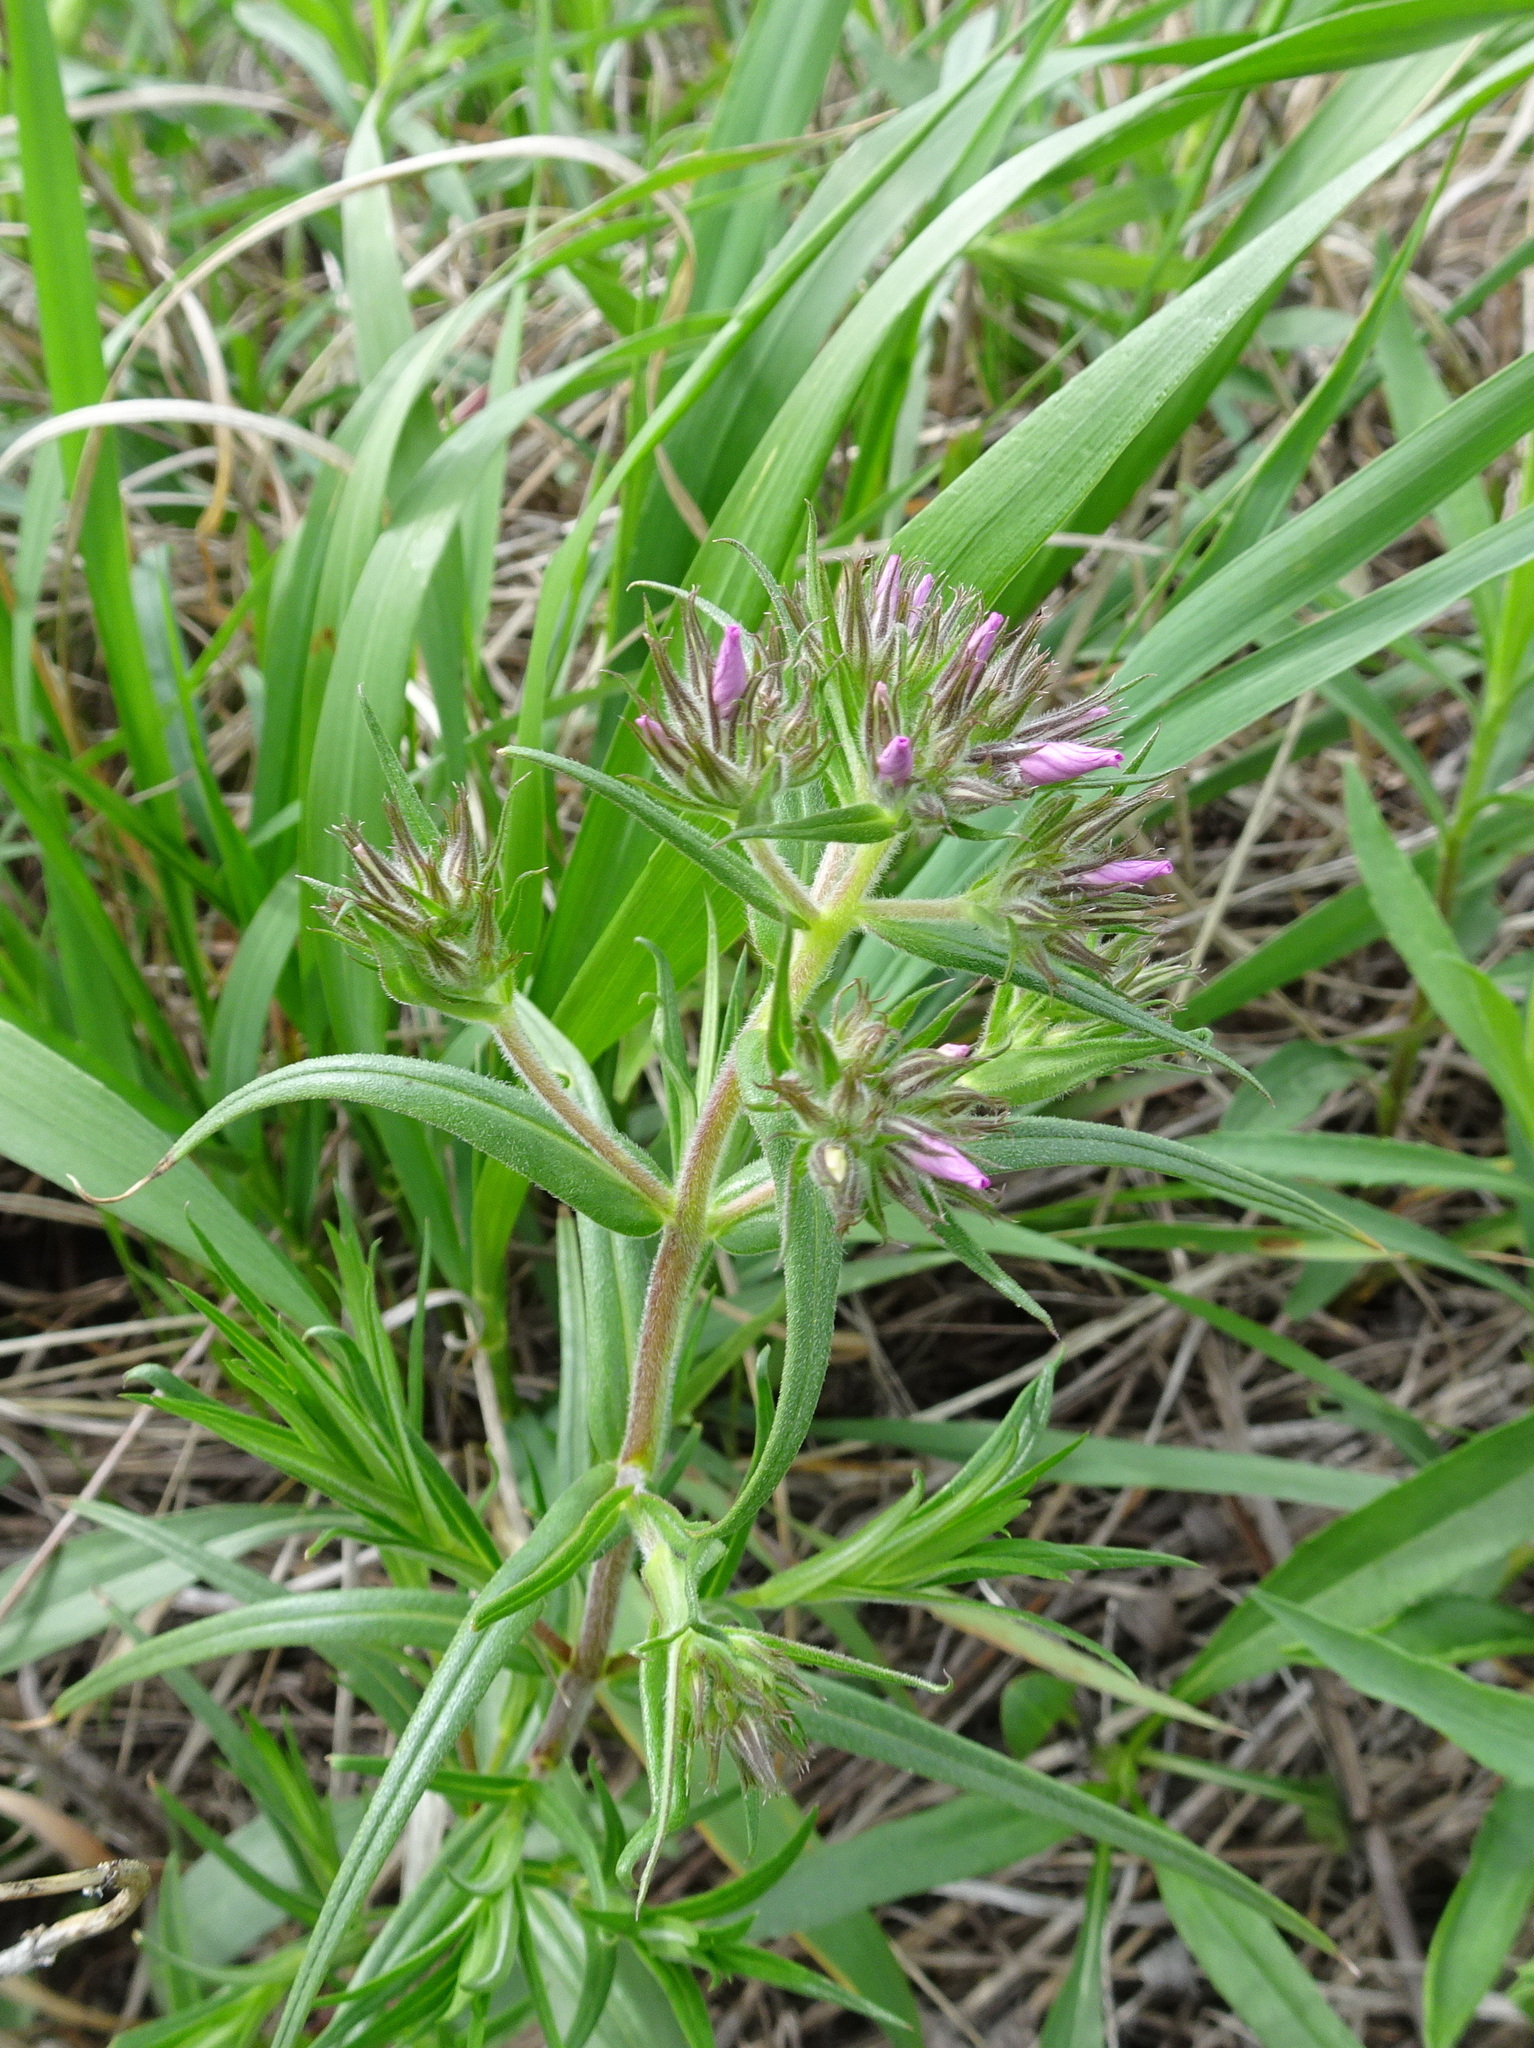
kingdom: Plantae
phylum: Tracheophyta
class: Magnoliopsida
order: Ericales
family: Polemoniaceae
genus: Phlox
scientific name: Phlox pilosa
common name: Prairie phlox
